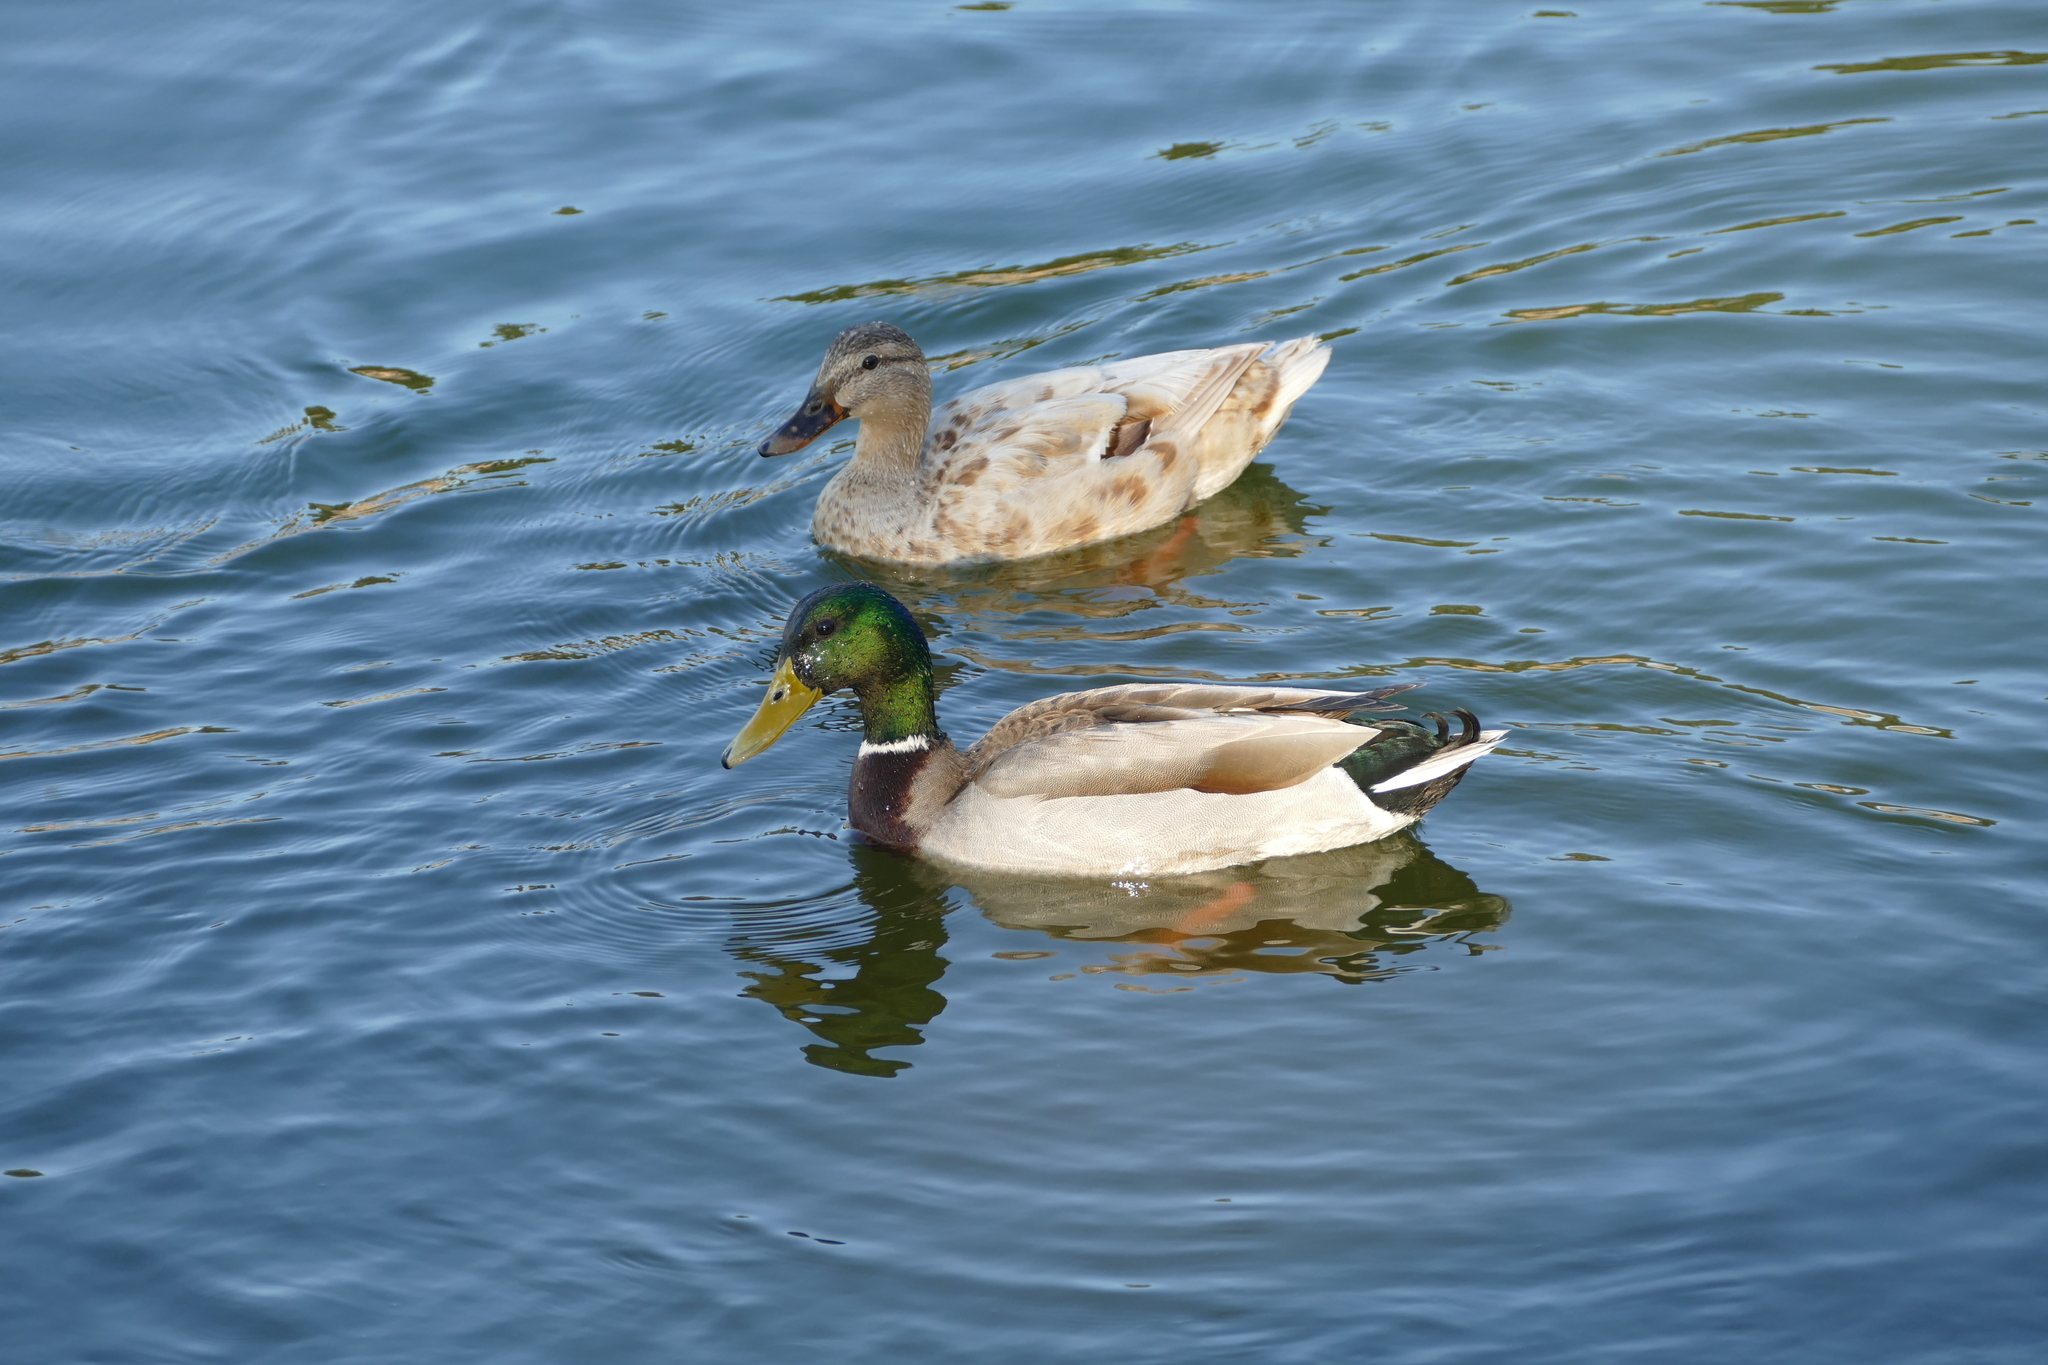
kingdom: Animalia
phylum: Chordata
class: Aves
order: Anseriformes
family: Anatidae
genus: Anas
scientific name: Anas platyrhynchos
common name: Mallard
